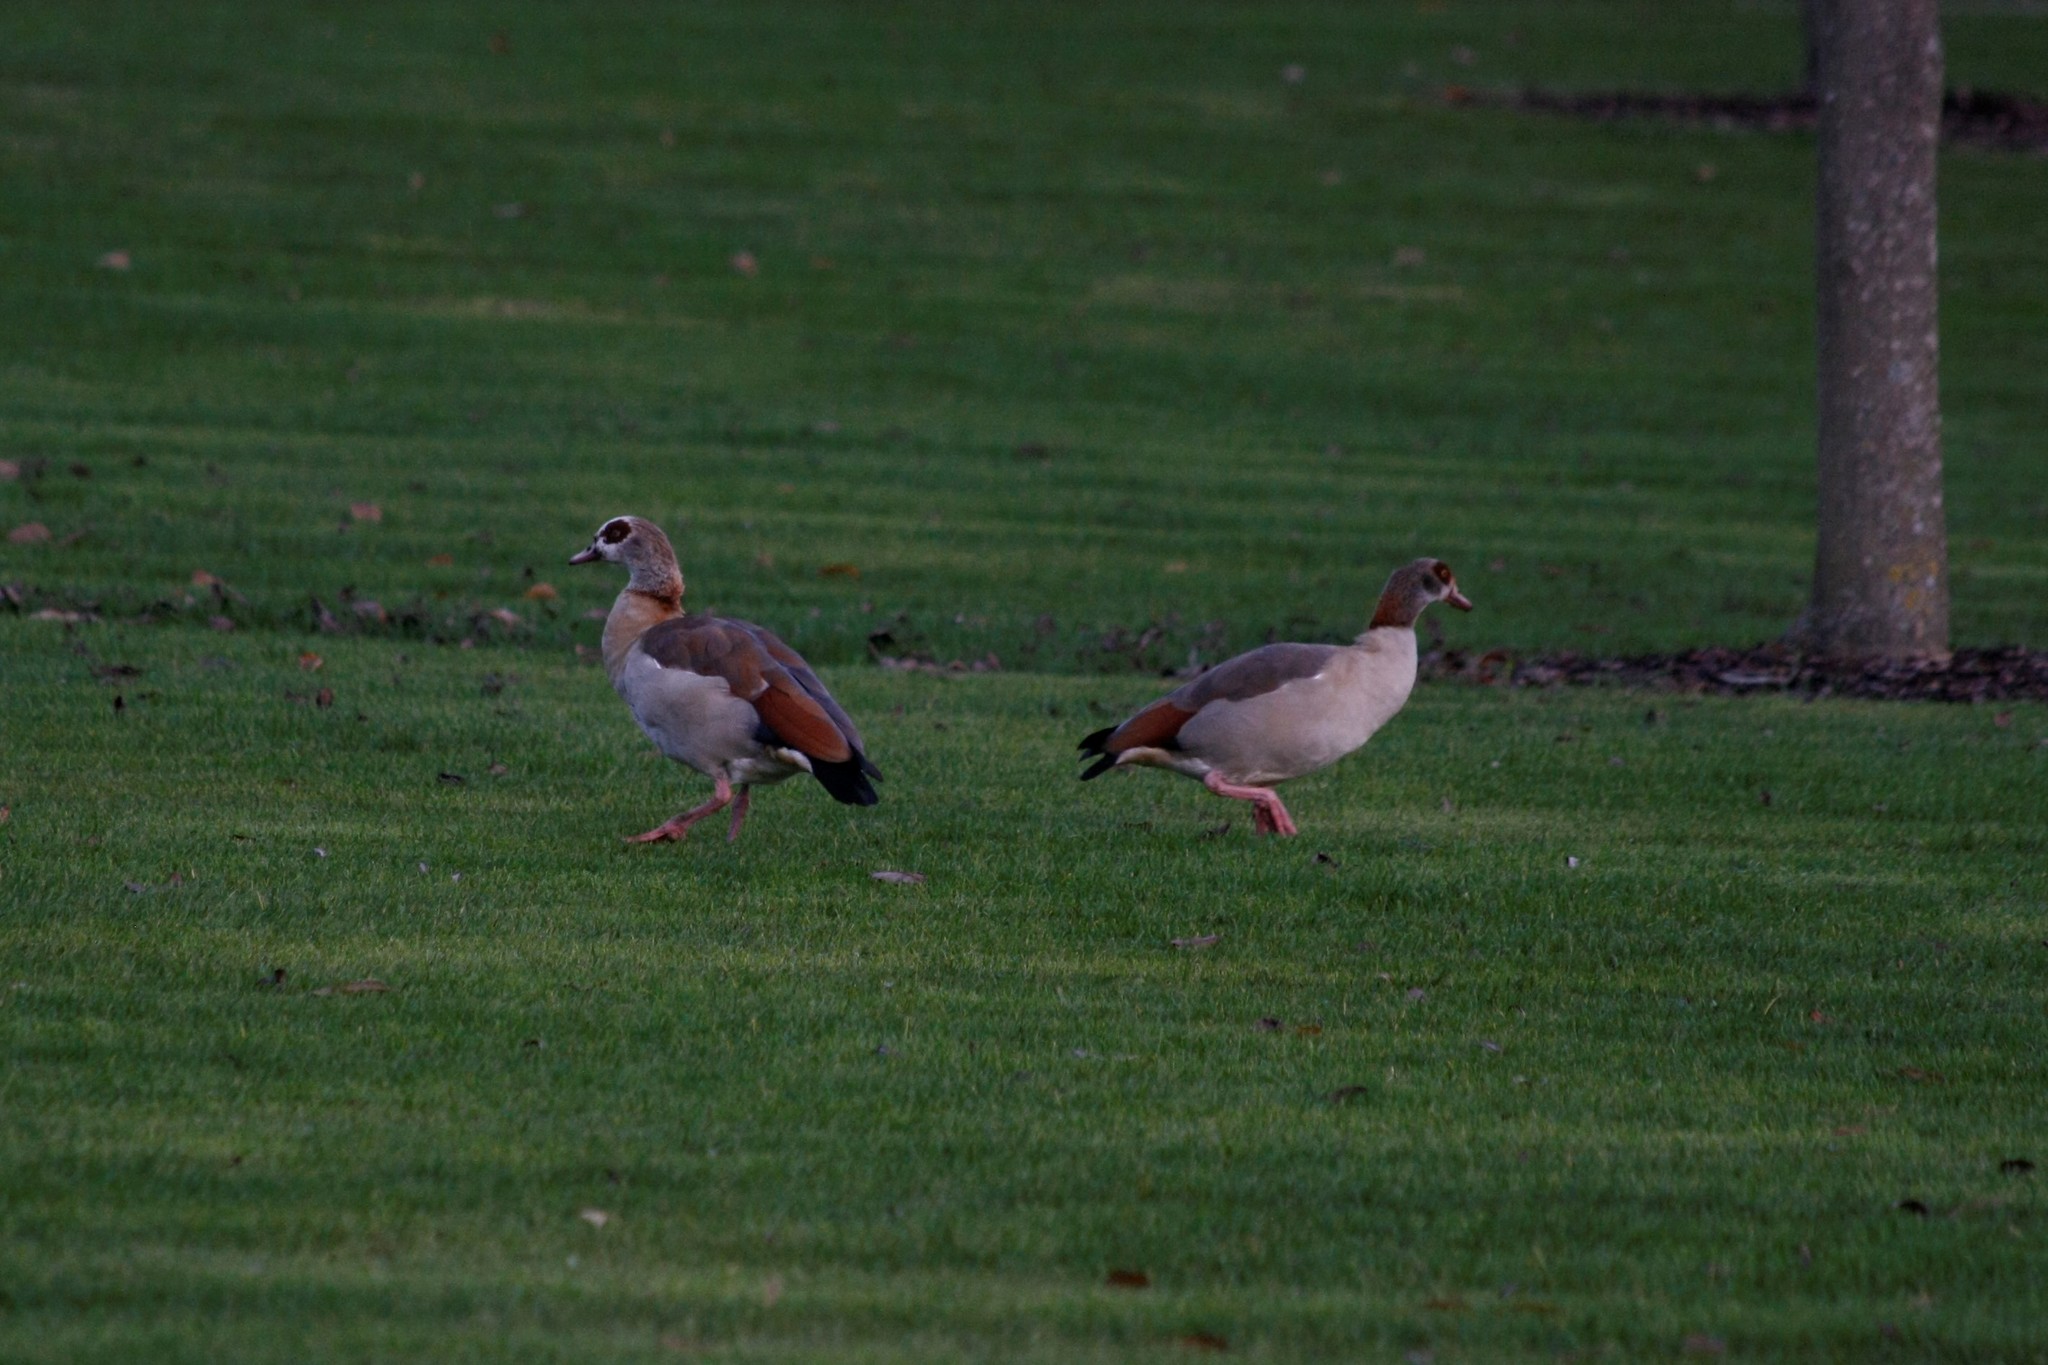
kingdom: Animalia
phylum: Chordata
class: Aves
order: Anseriformes
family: Anatidae
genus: Alopochen
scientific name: Alopochen aegyptiaca
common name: Egyptian goose
